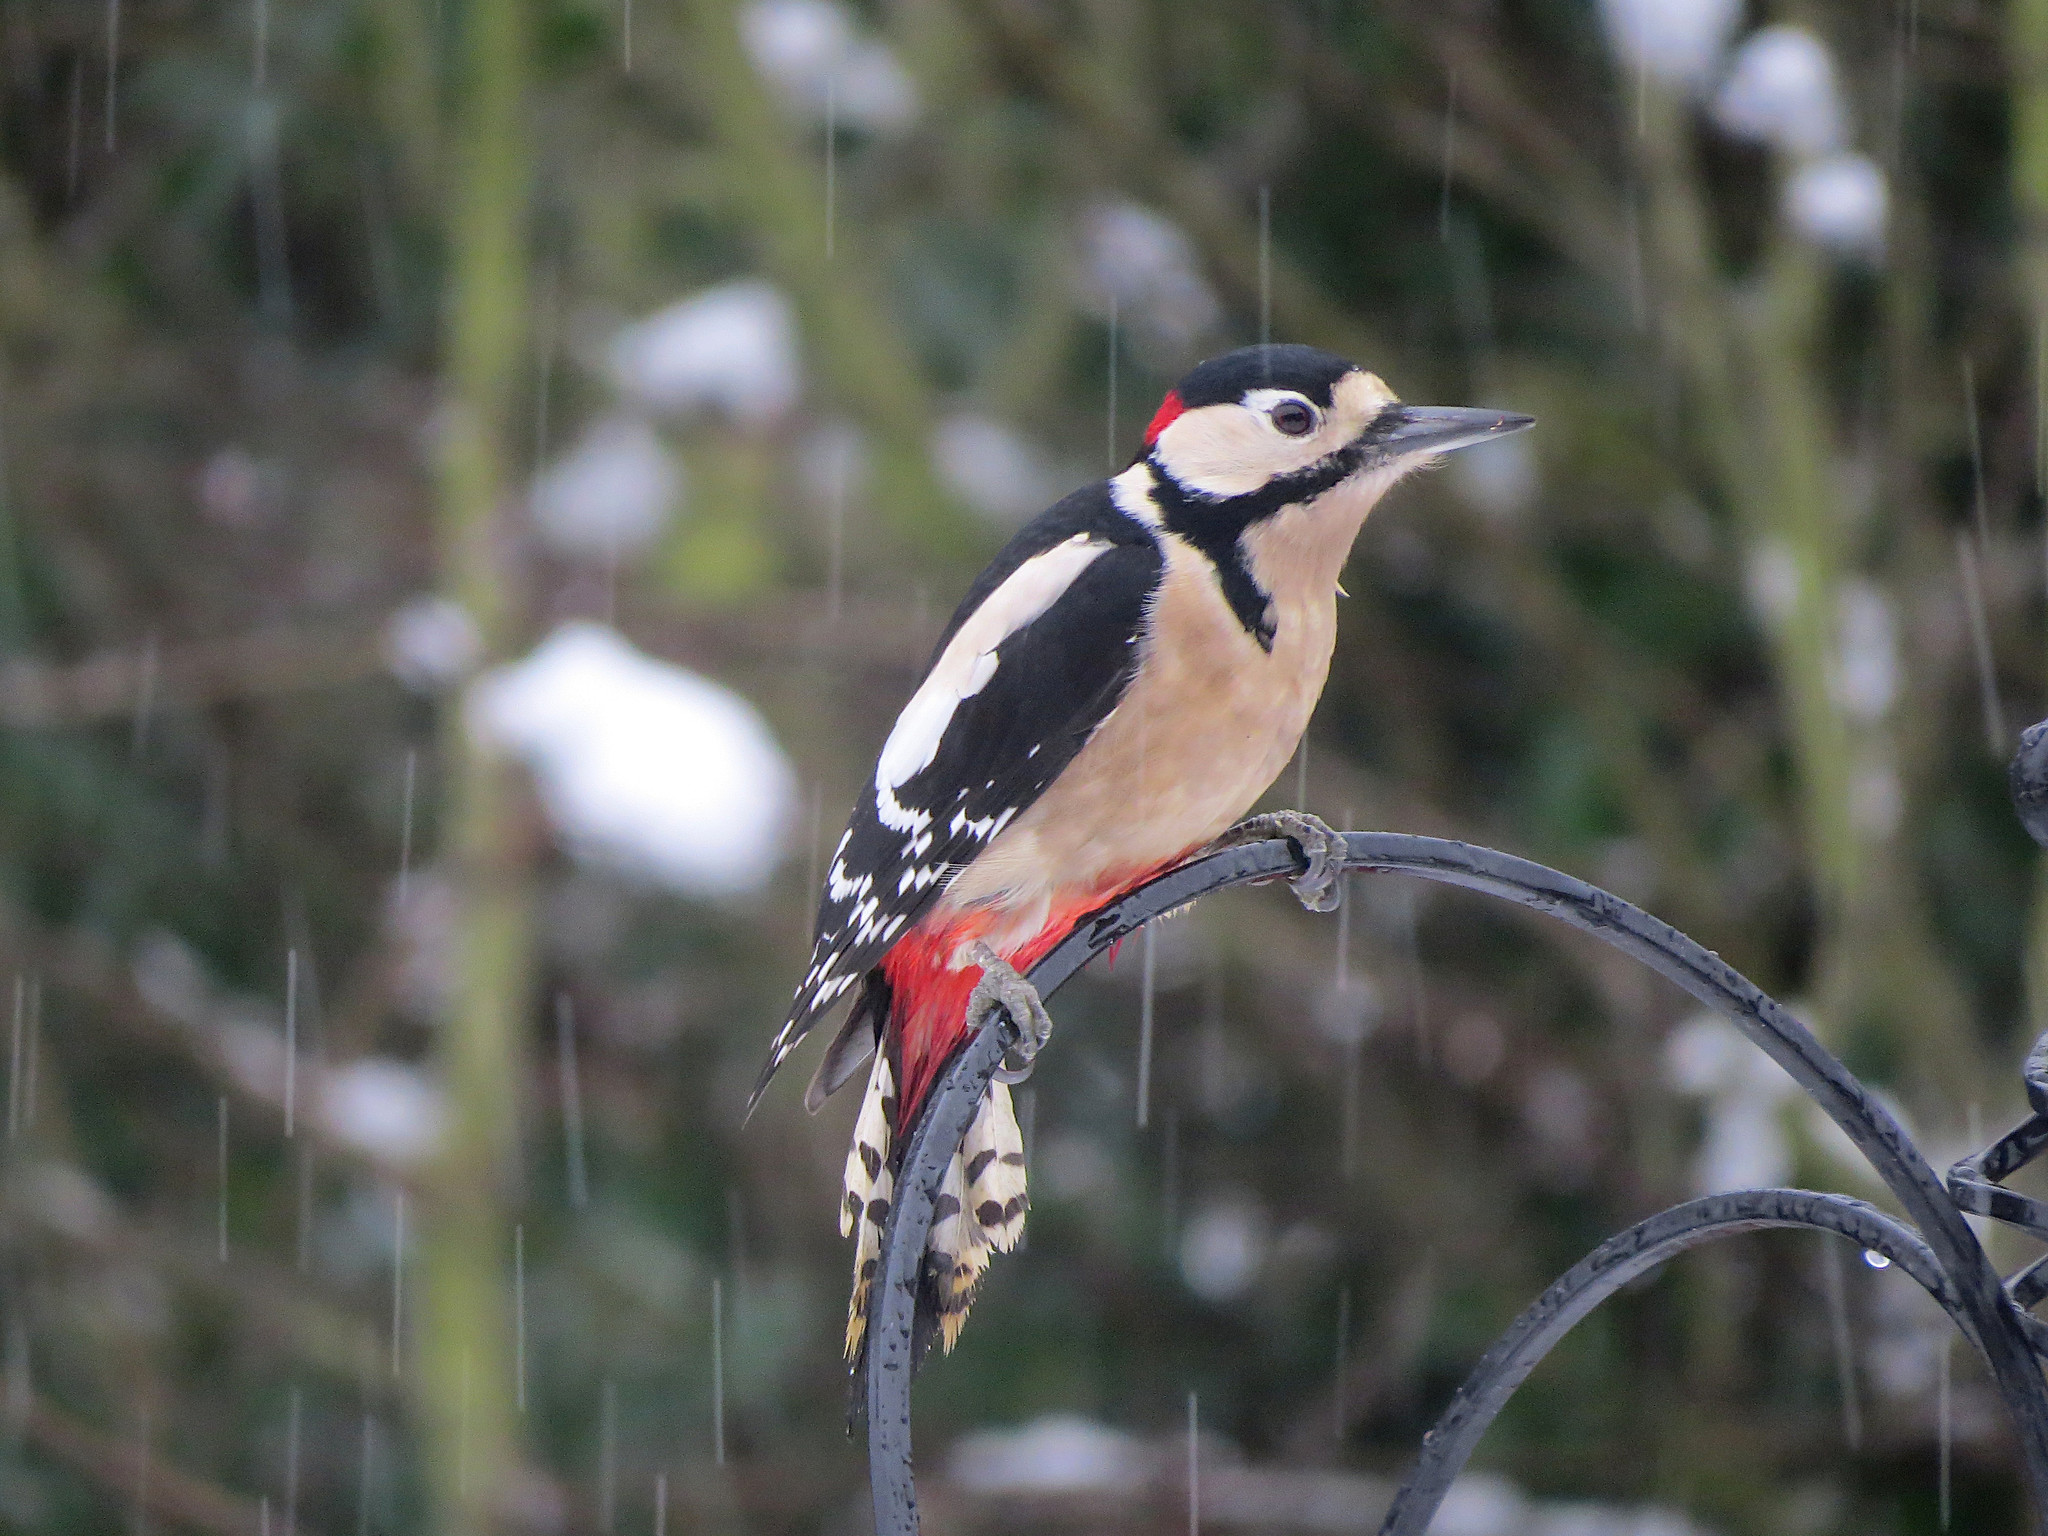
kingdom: Animalia
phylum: Chordata
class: Aves
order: Piciformes
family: Picidae
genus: Dendrocopos
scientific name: Dendrocopos major
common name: Great spotted woodpecker
